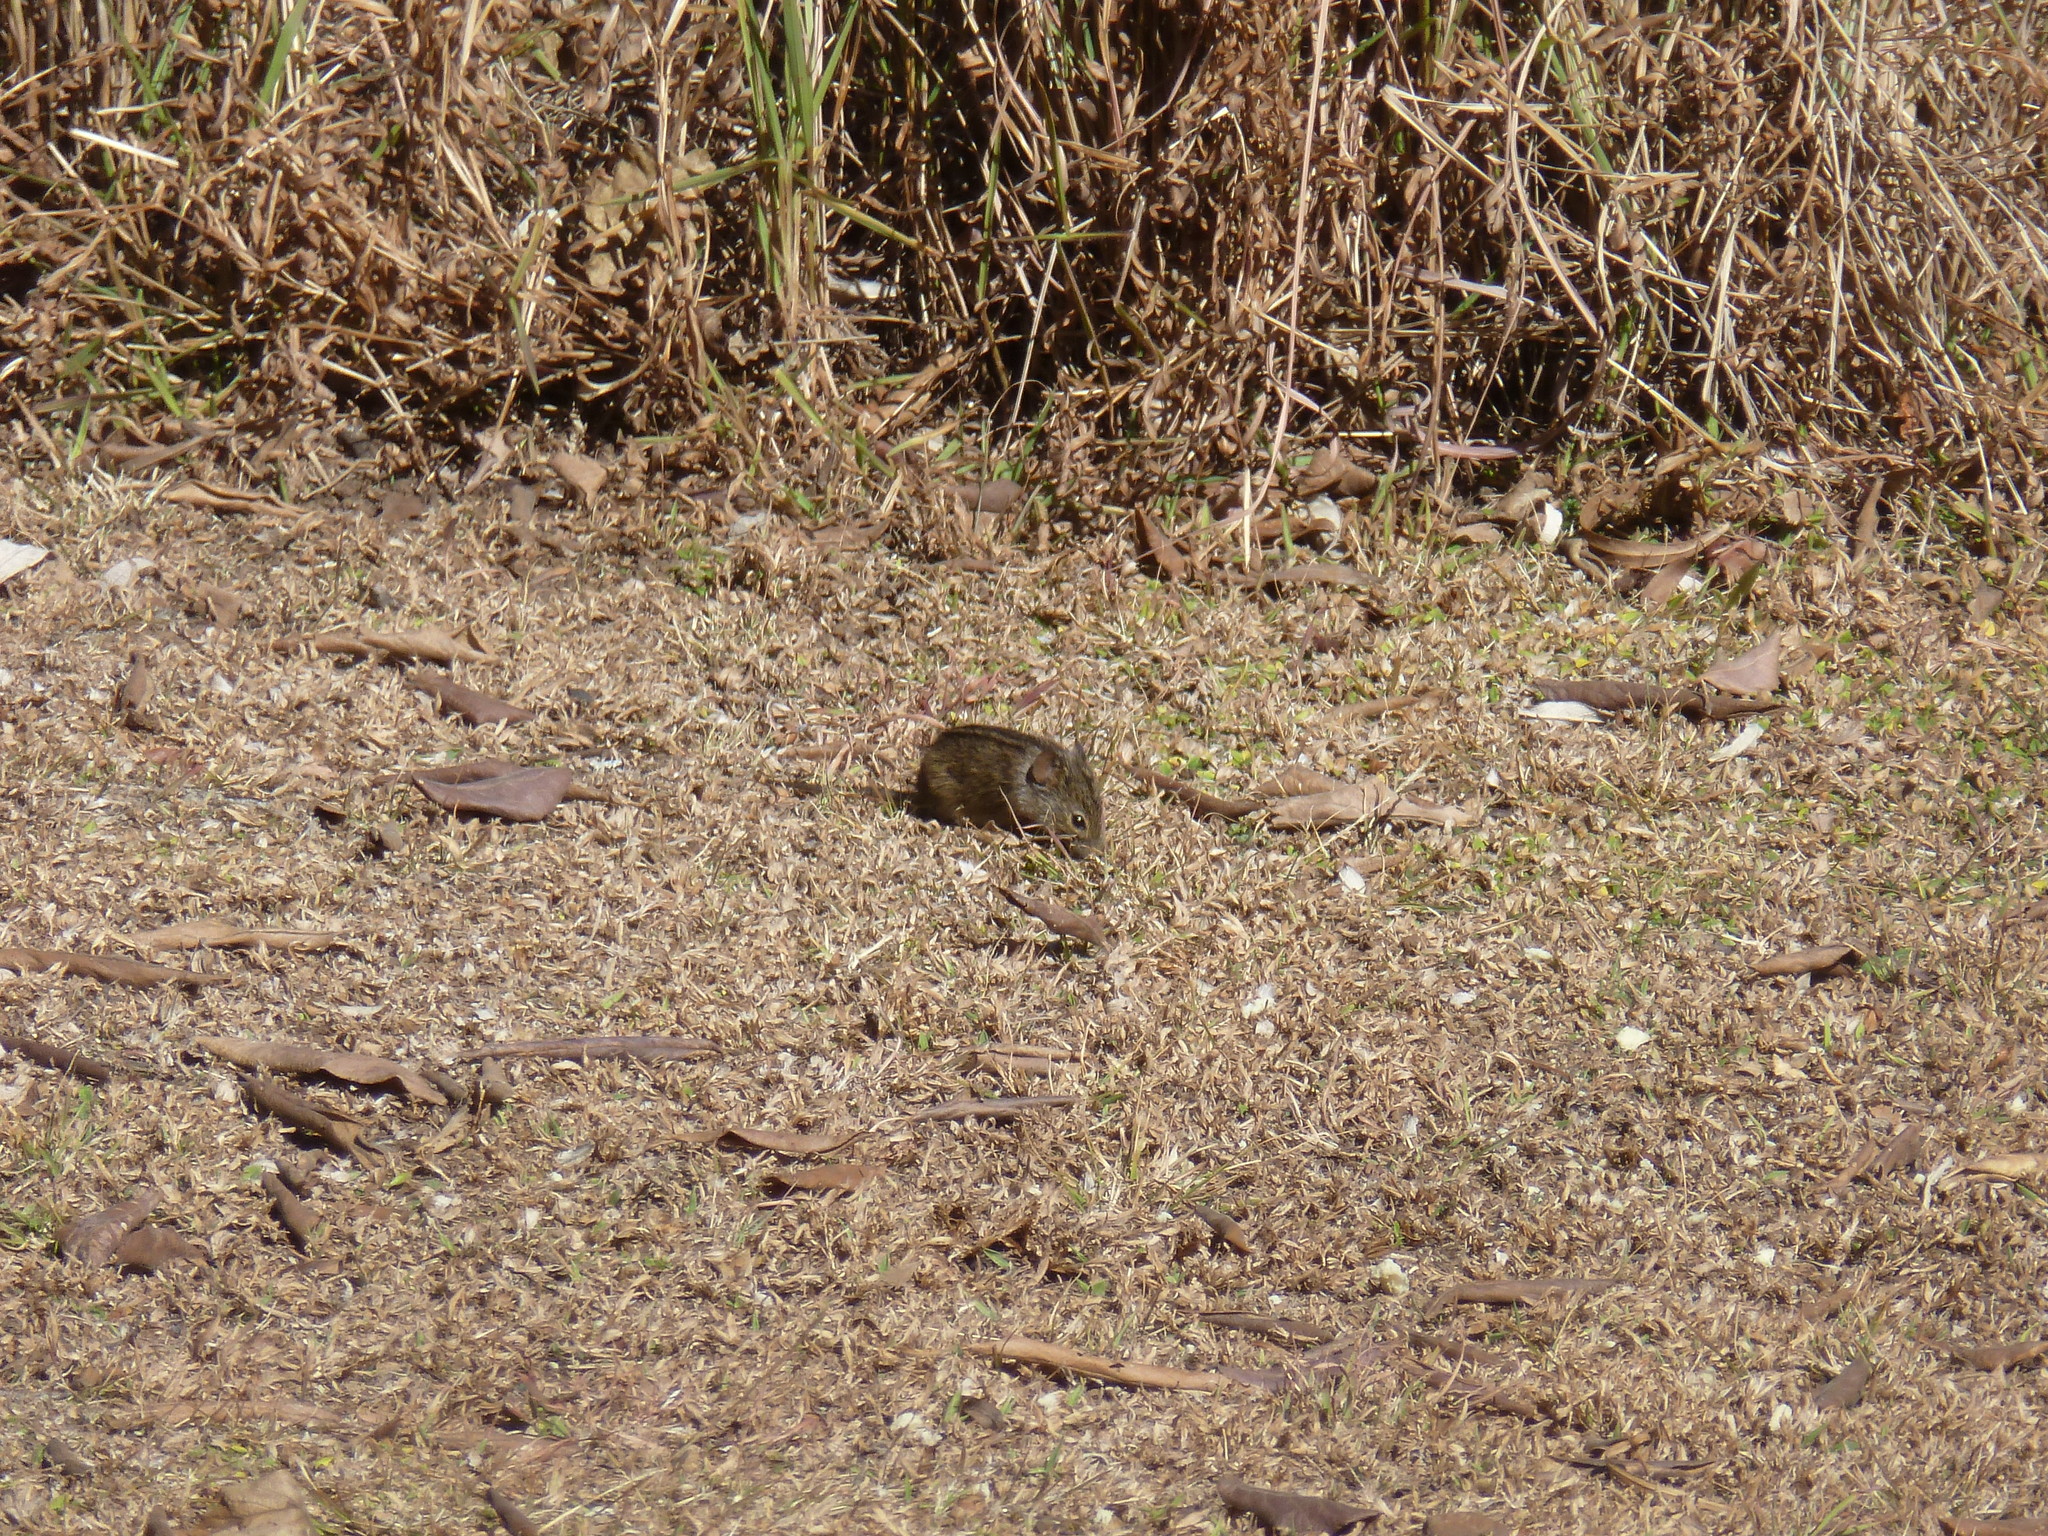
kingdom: Animalia
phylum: Chordata
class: Mammalia
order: Rodentia
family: Muridae
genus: Rhabdomys
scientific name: Rhabdomys dilectus
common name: Mesic four-striped grass rat
